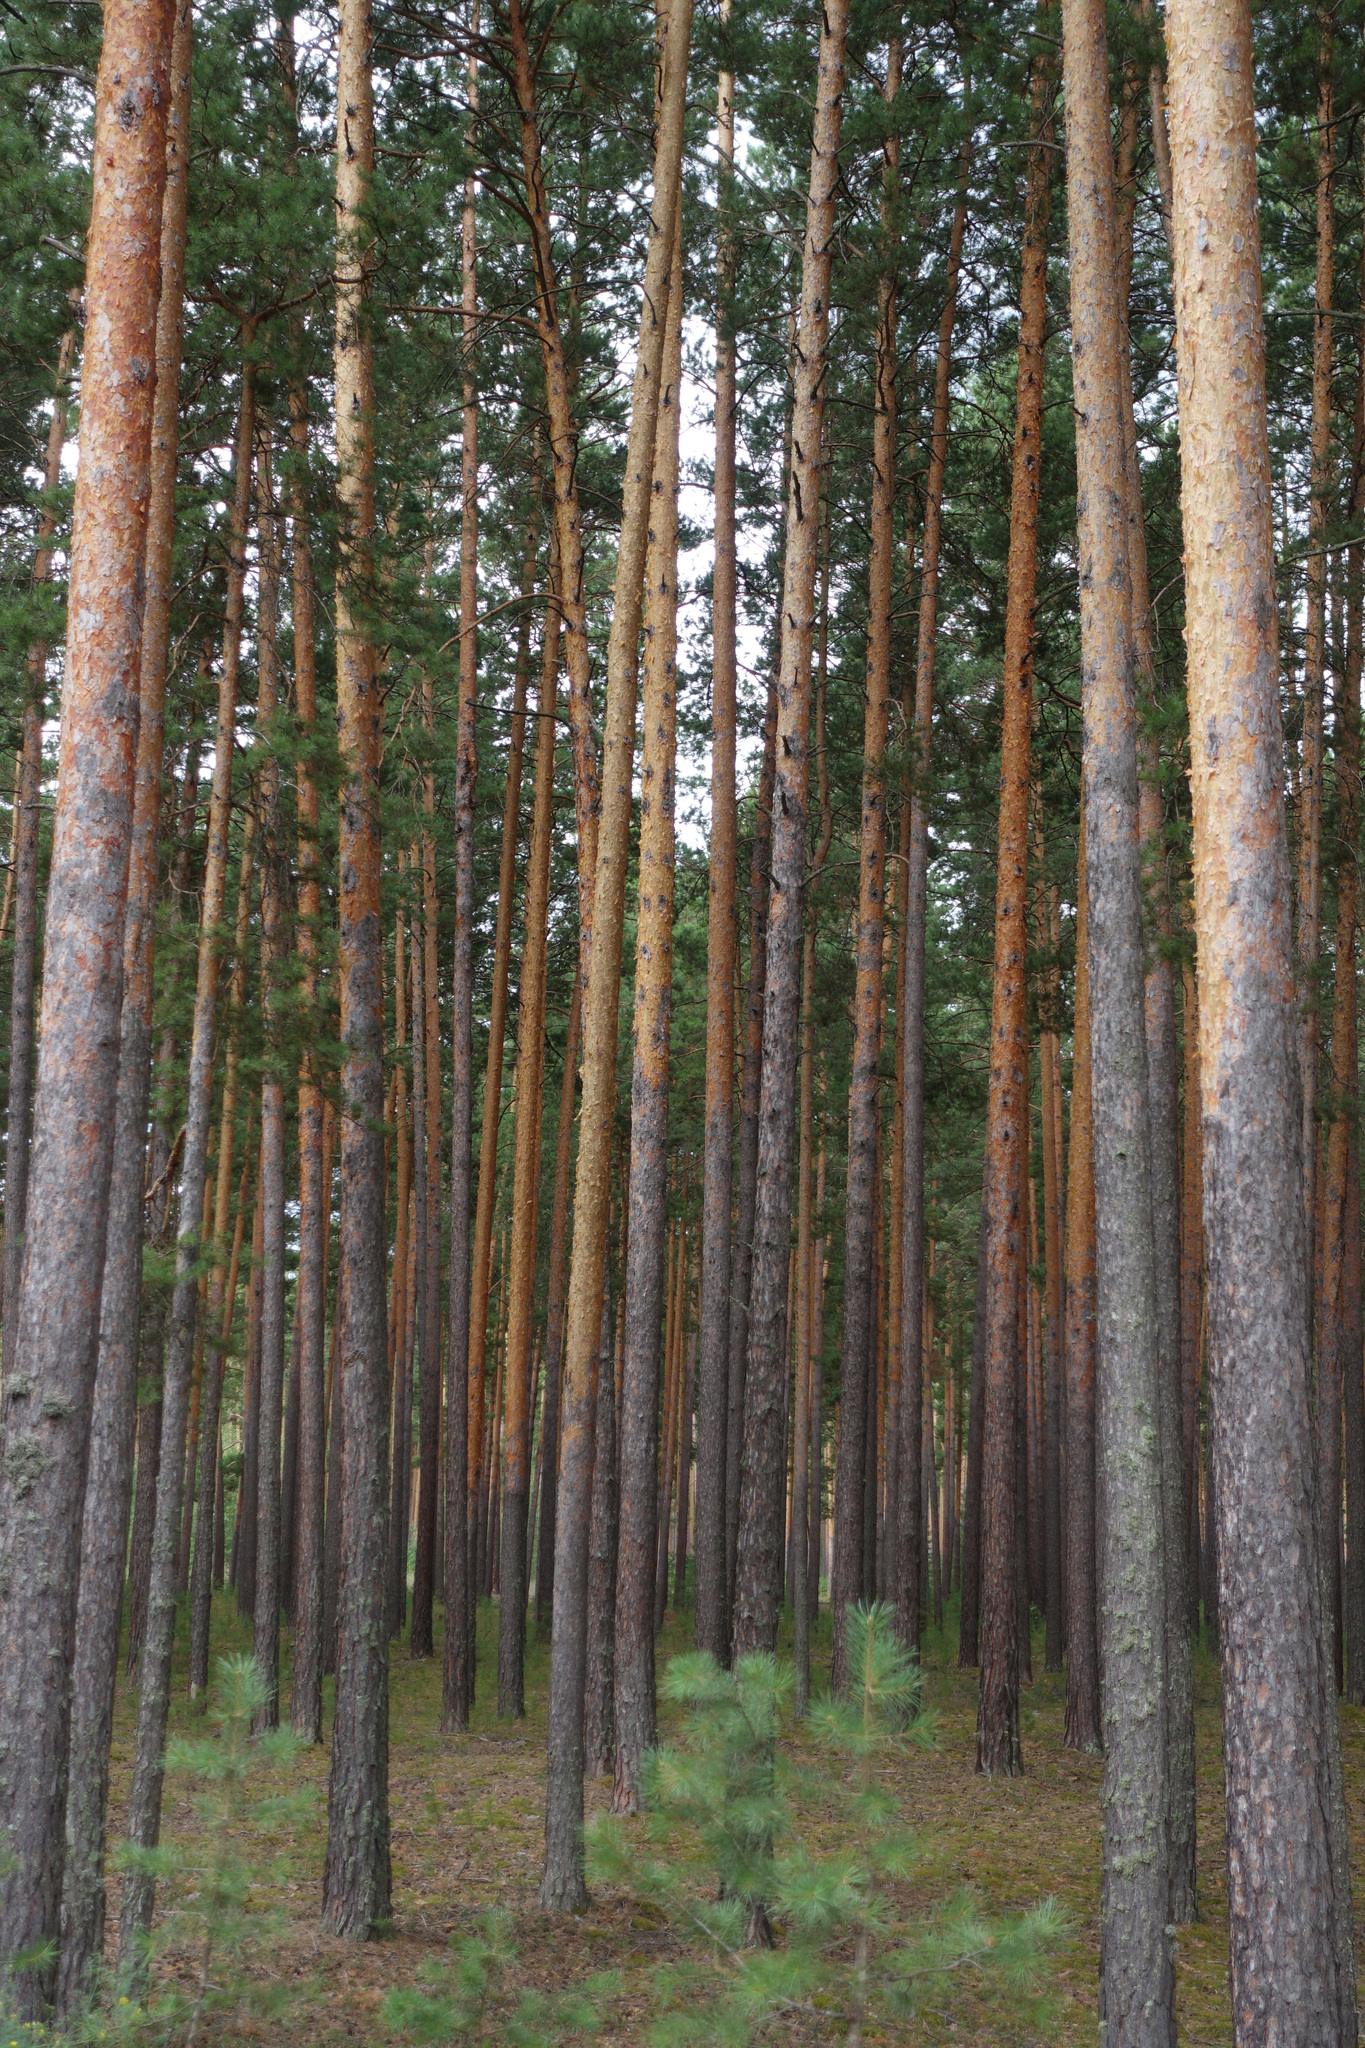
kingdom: Plantae
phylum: Tracheophyta
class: Pinopsida
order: Pinales
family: Pinaceae
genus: Pinus
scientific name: Pinus sylvestris
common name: Scots pine
